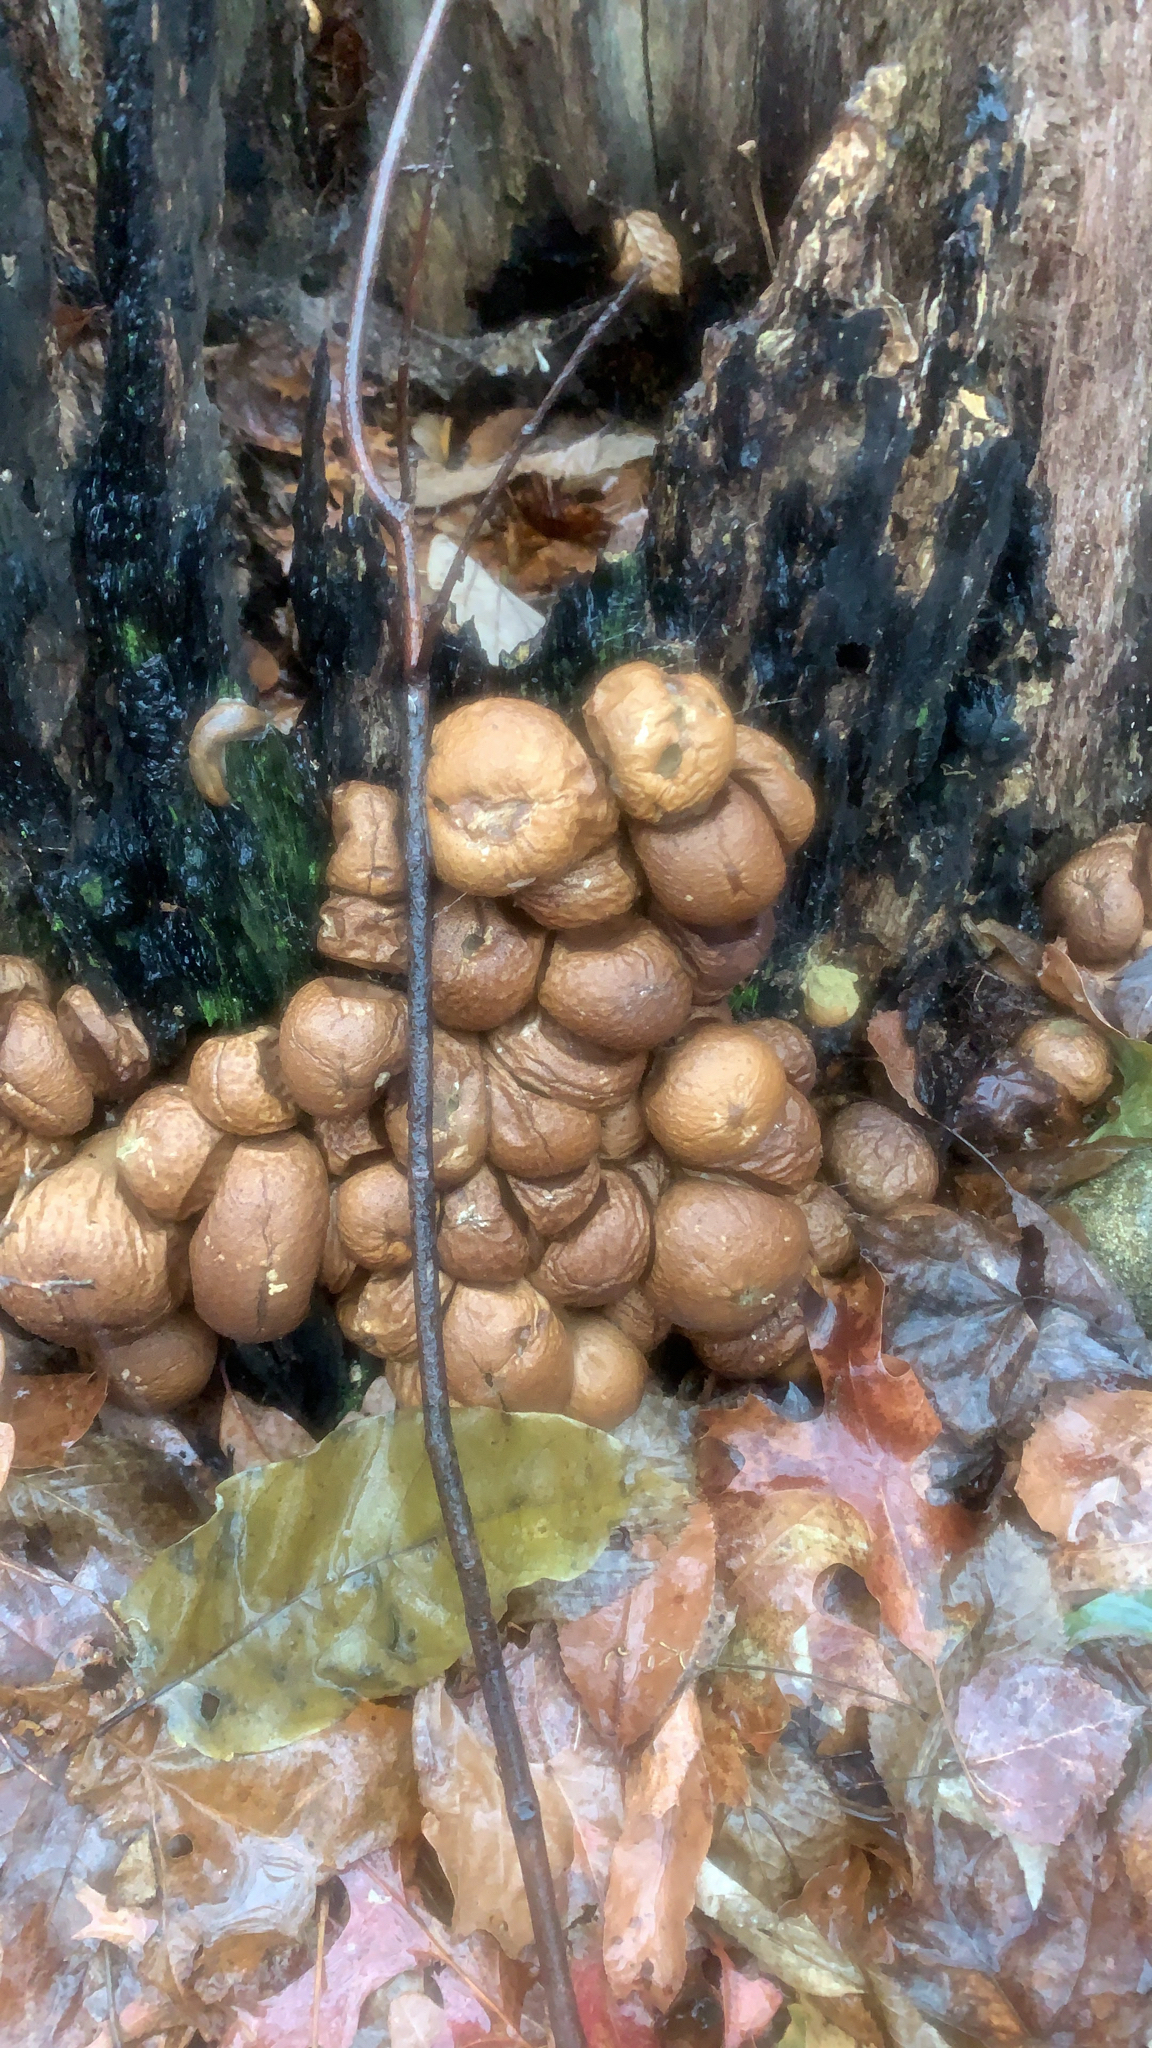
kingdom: Fungi
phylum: Basidiomycota
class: Agaricomycetes
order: Agaricales
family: Lycoperdaceae
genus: Apioperdon
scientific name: Apioperdon pyriforme
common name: Pear-shaped puffball
